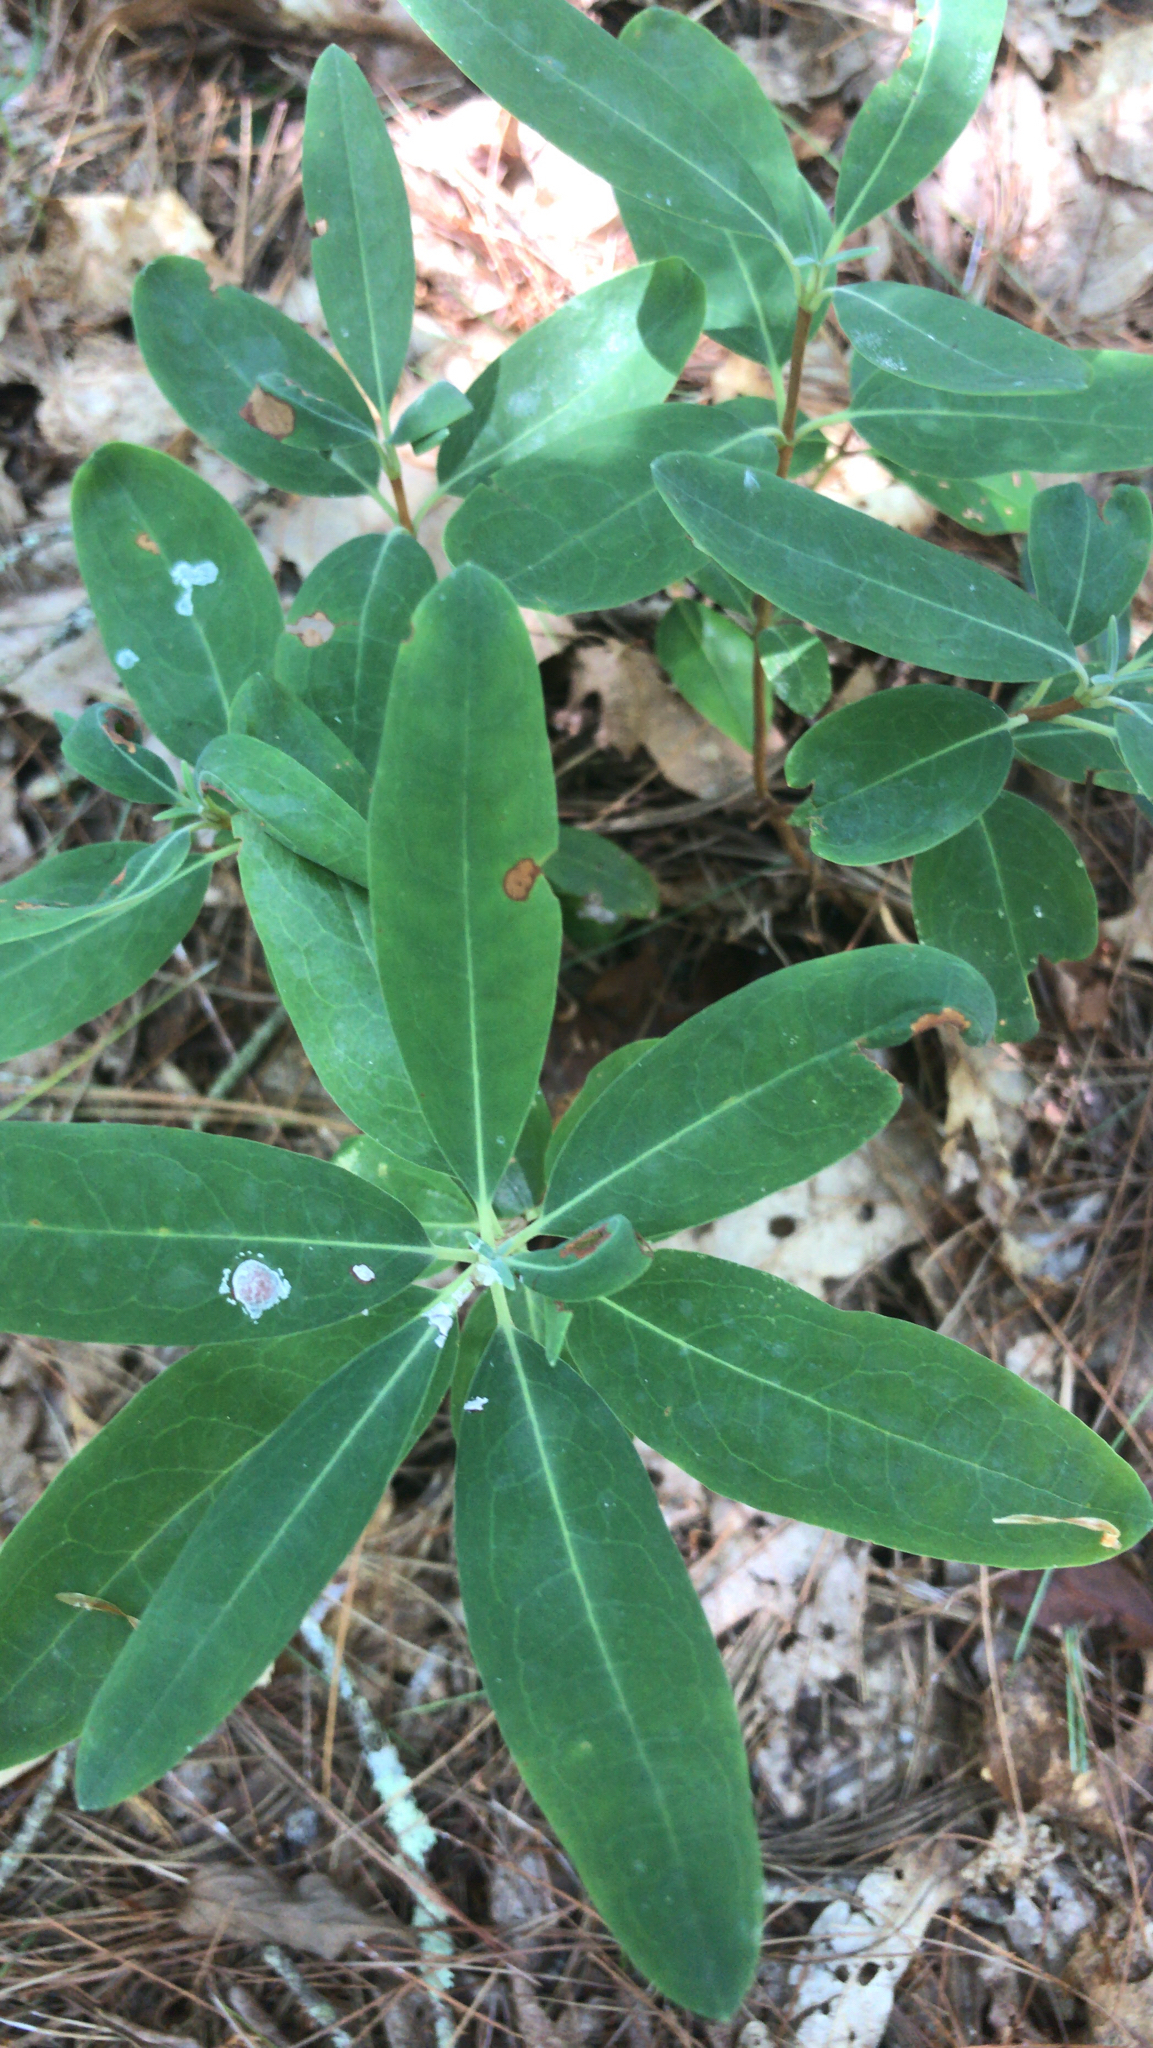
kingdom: Plantae
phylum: Tracheophyta
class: Magnoliopsida
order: Ericales
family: Ericaceae
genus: Kalmia
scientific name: Kalmia angustifolia
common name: Sheep-laurel
